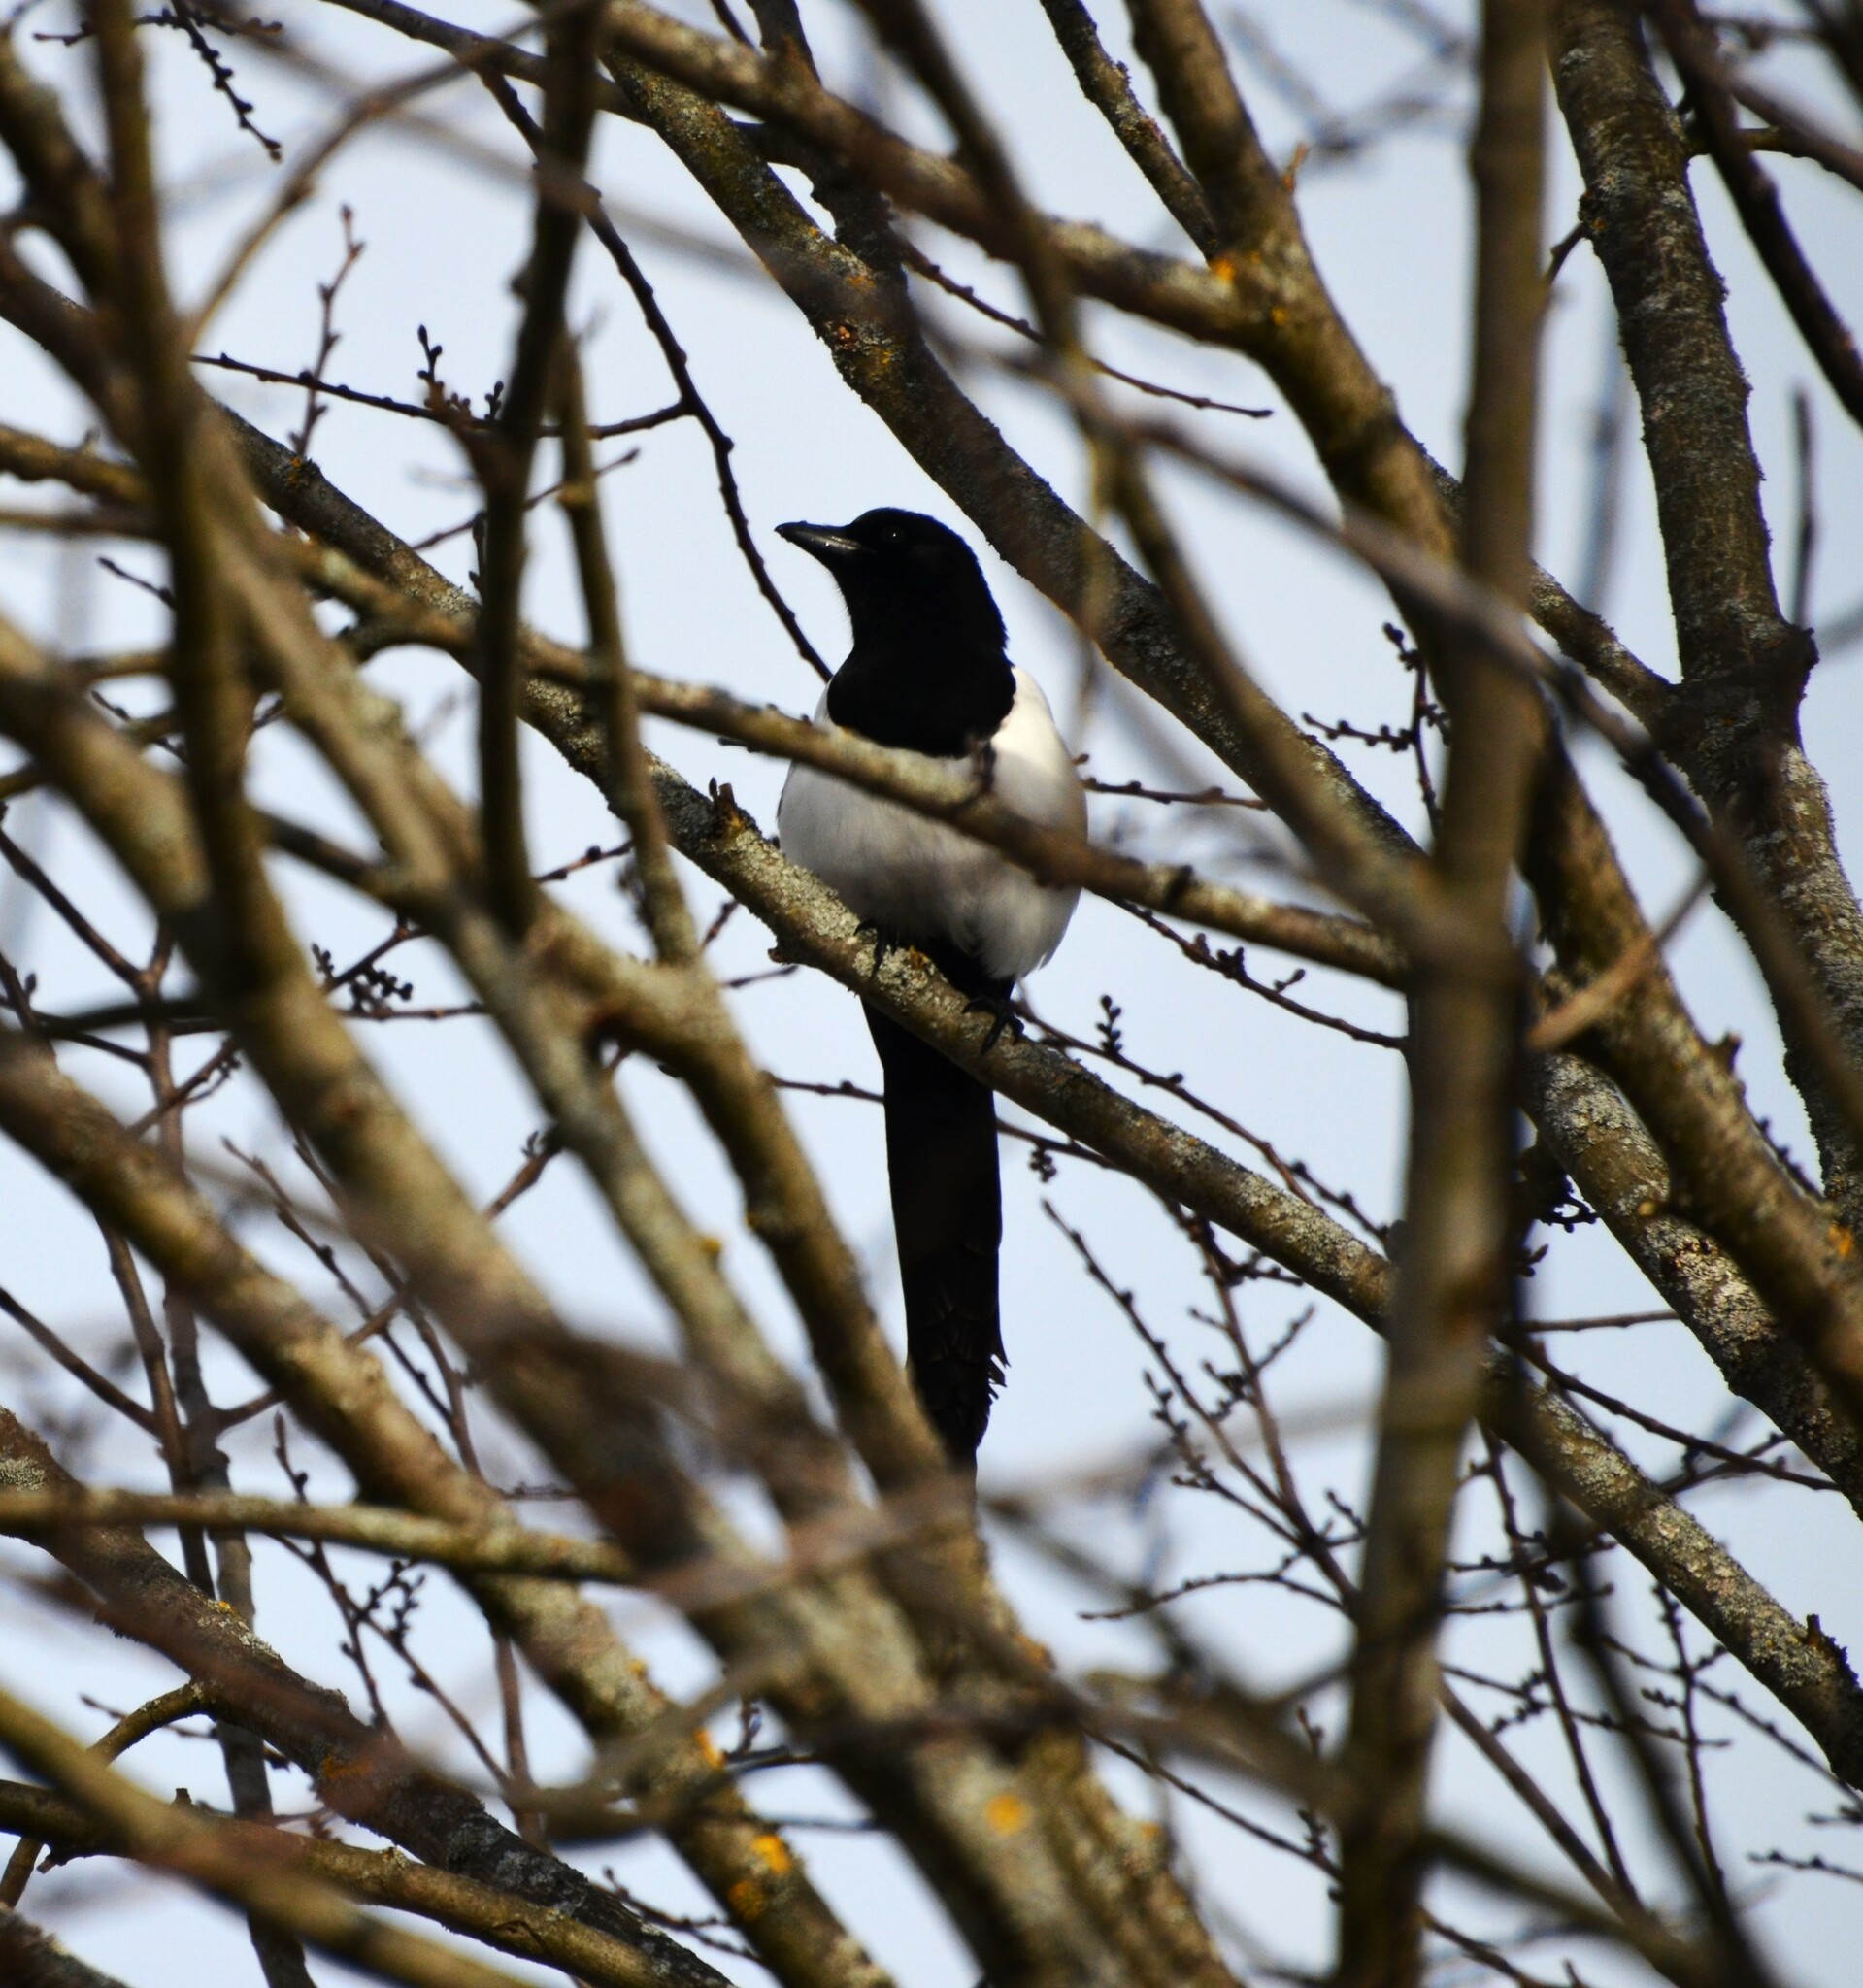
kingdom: Animalia
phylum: Chordata
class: Aves
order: Passeriformes
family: Corvidae
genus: Pica
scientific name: Pica pica
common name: Eurasian magpie
